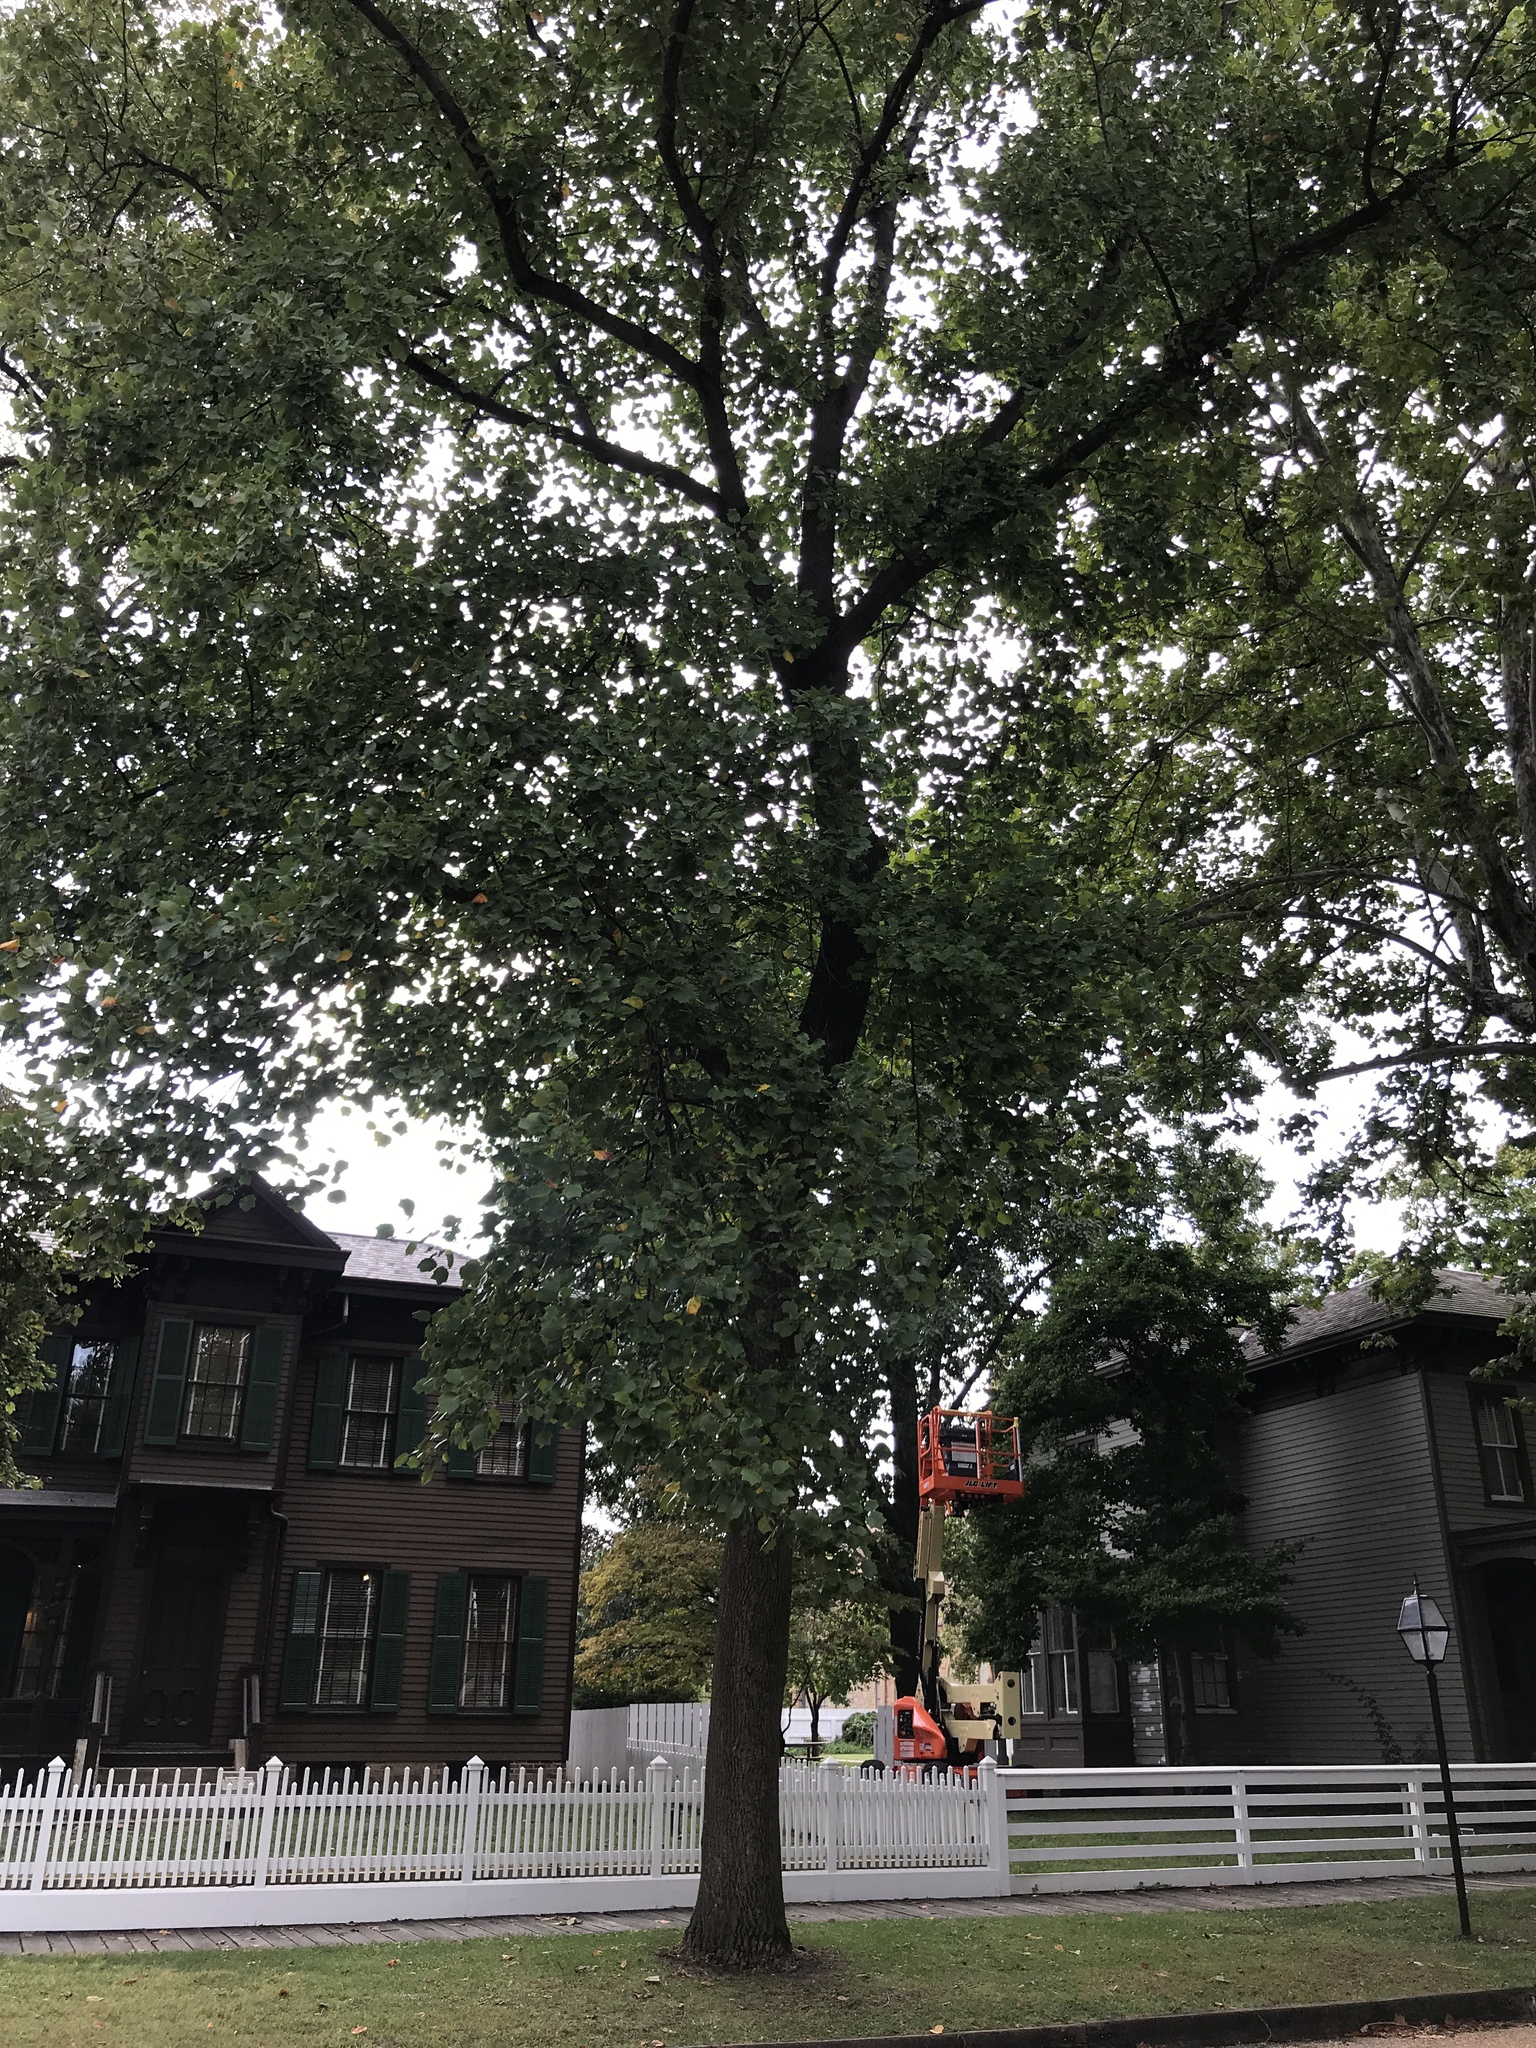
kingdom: Plantae
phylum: Tracheophyta
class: Magnoliopsida
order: Magnoliales
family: Magnoliaceae
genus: Liriodendron
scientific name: Liriodendron tulipifera
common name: Tulip tree
